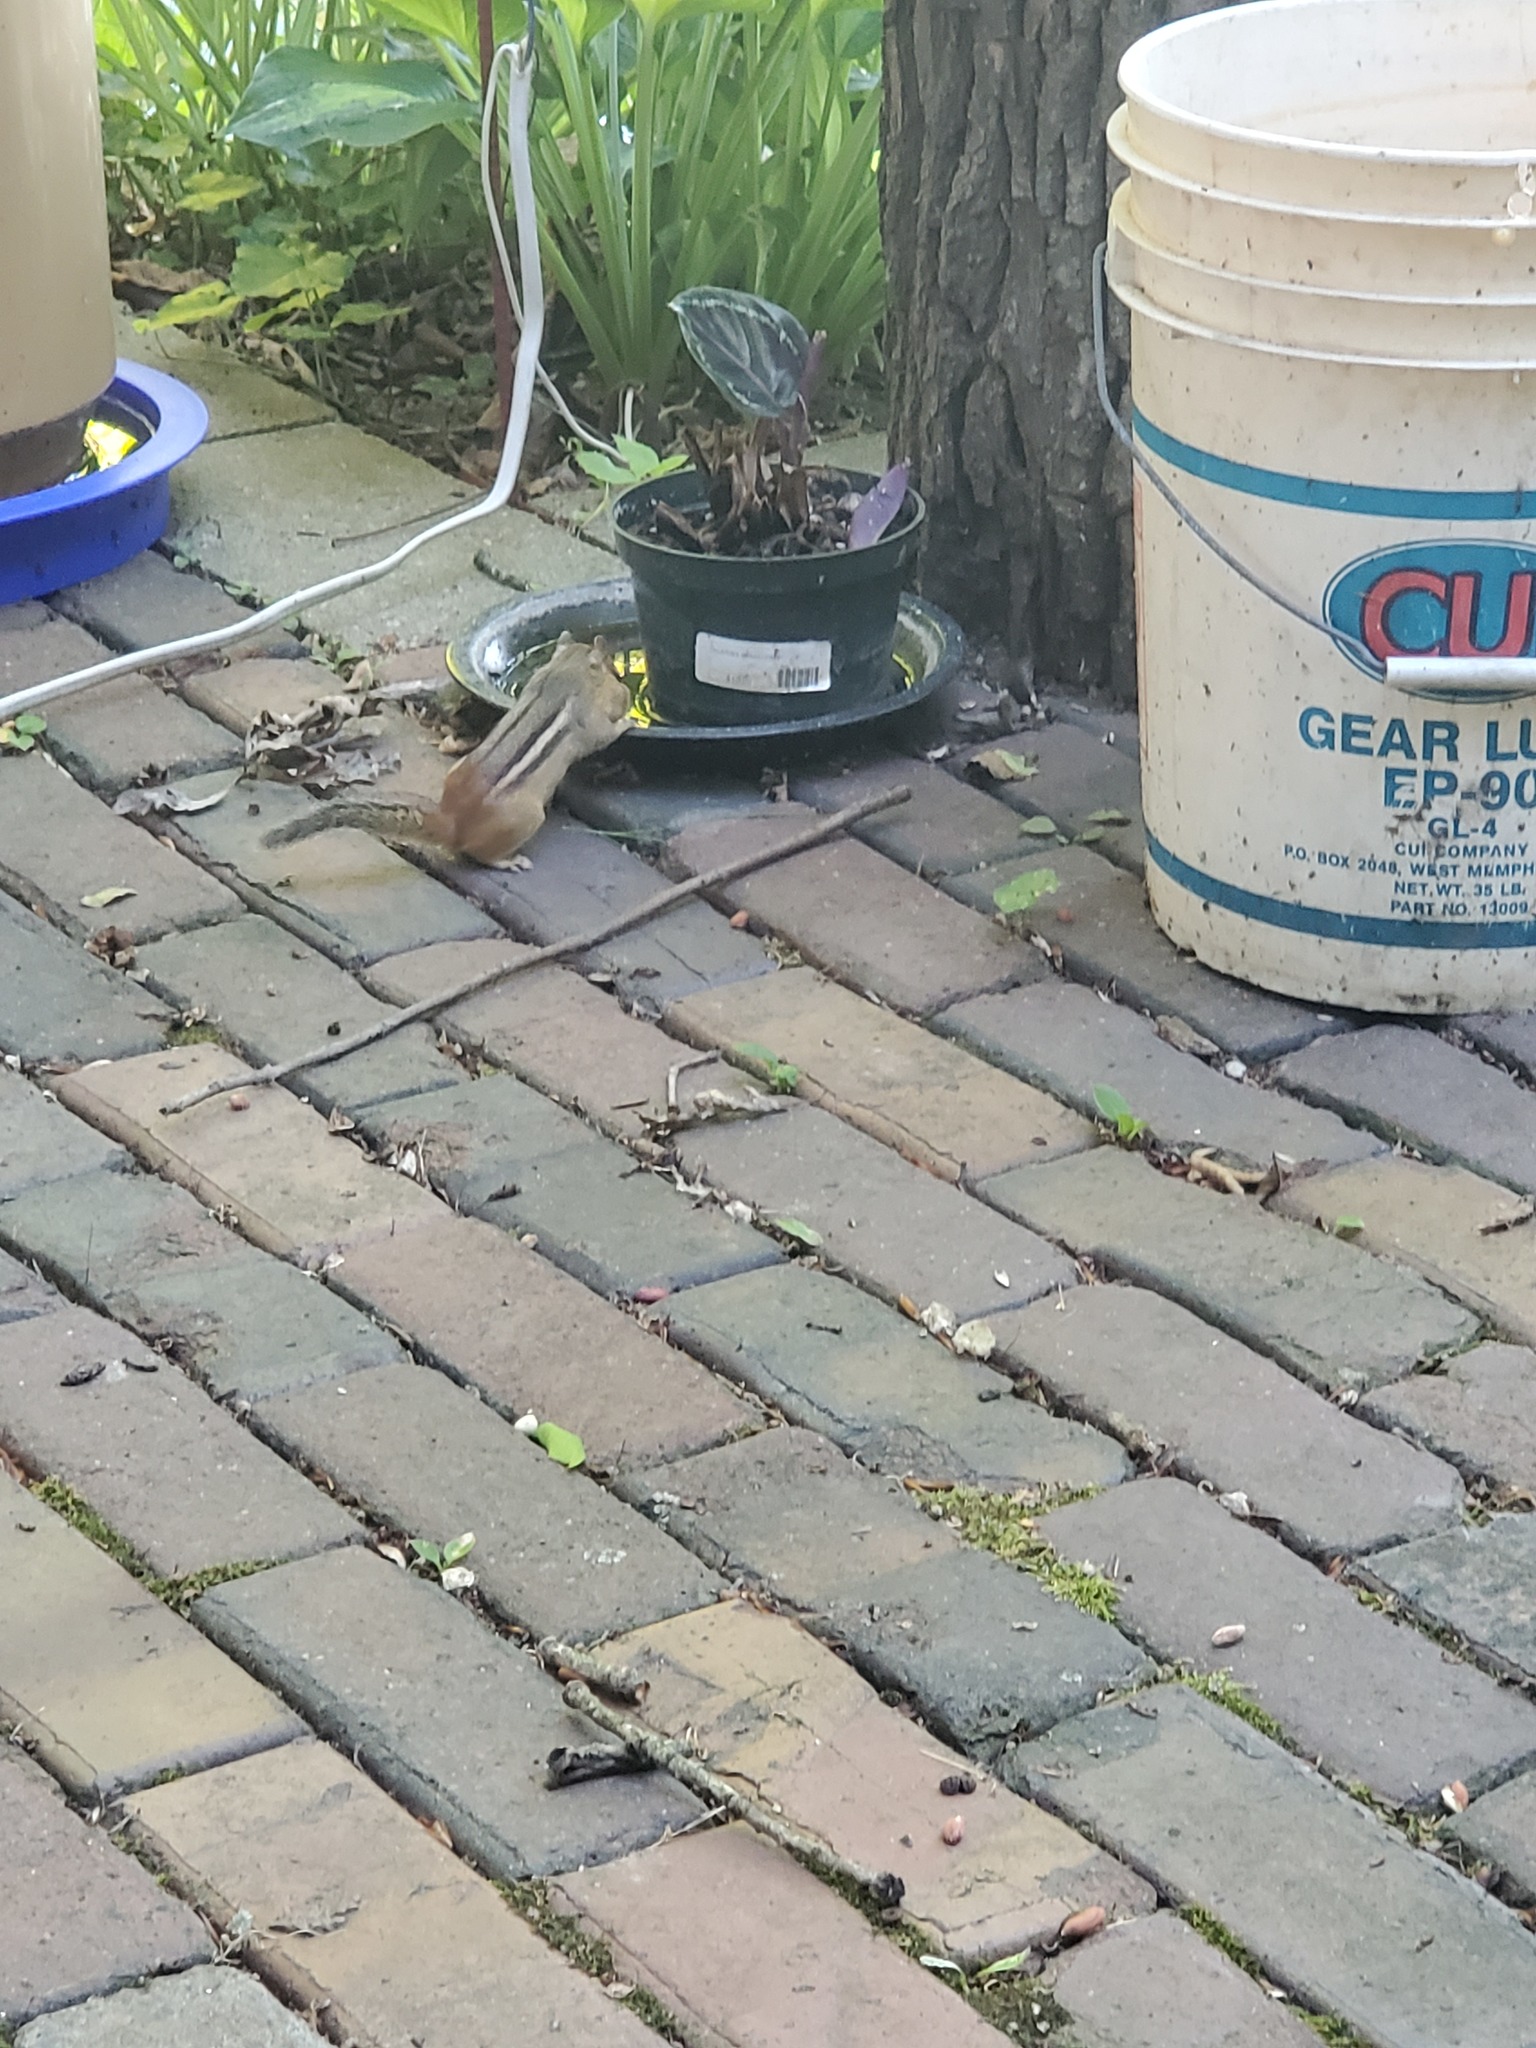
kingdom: Animalia
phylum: Chordata
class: Mammalia
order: Rodentia
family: Sciuridae
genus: Tamias
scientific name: Tamias striatus
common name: Eastern chipmunk
